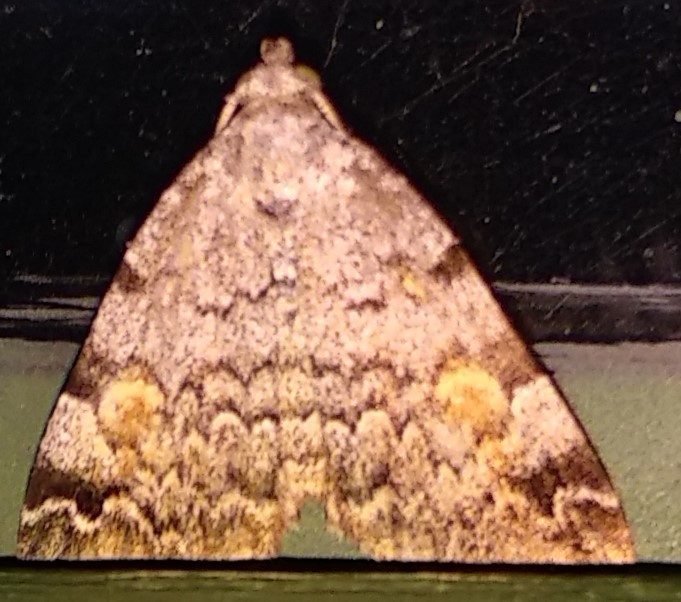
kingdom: Animalia
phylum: Arthropoda
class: Insecta
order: Lepidoptera
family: Erebidae
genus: Idia
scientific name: Idia americalis
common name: American idia moth
